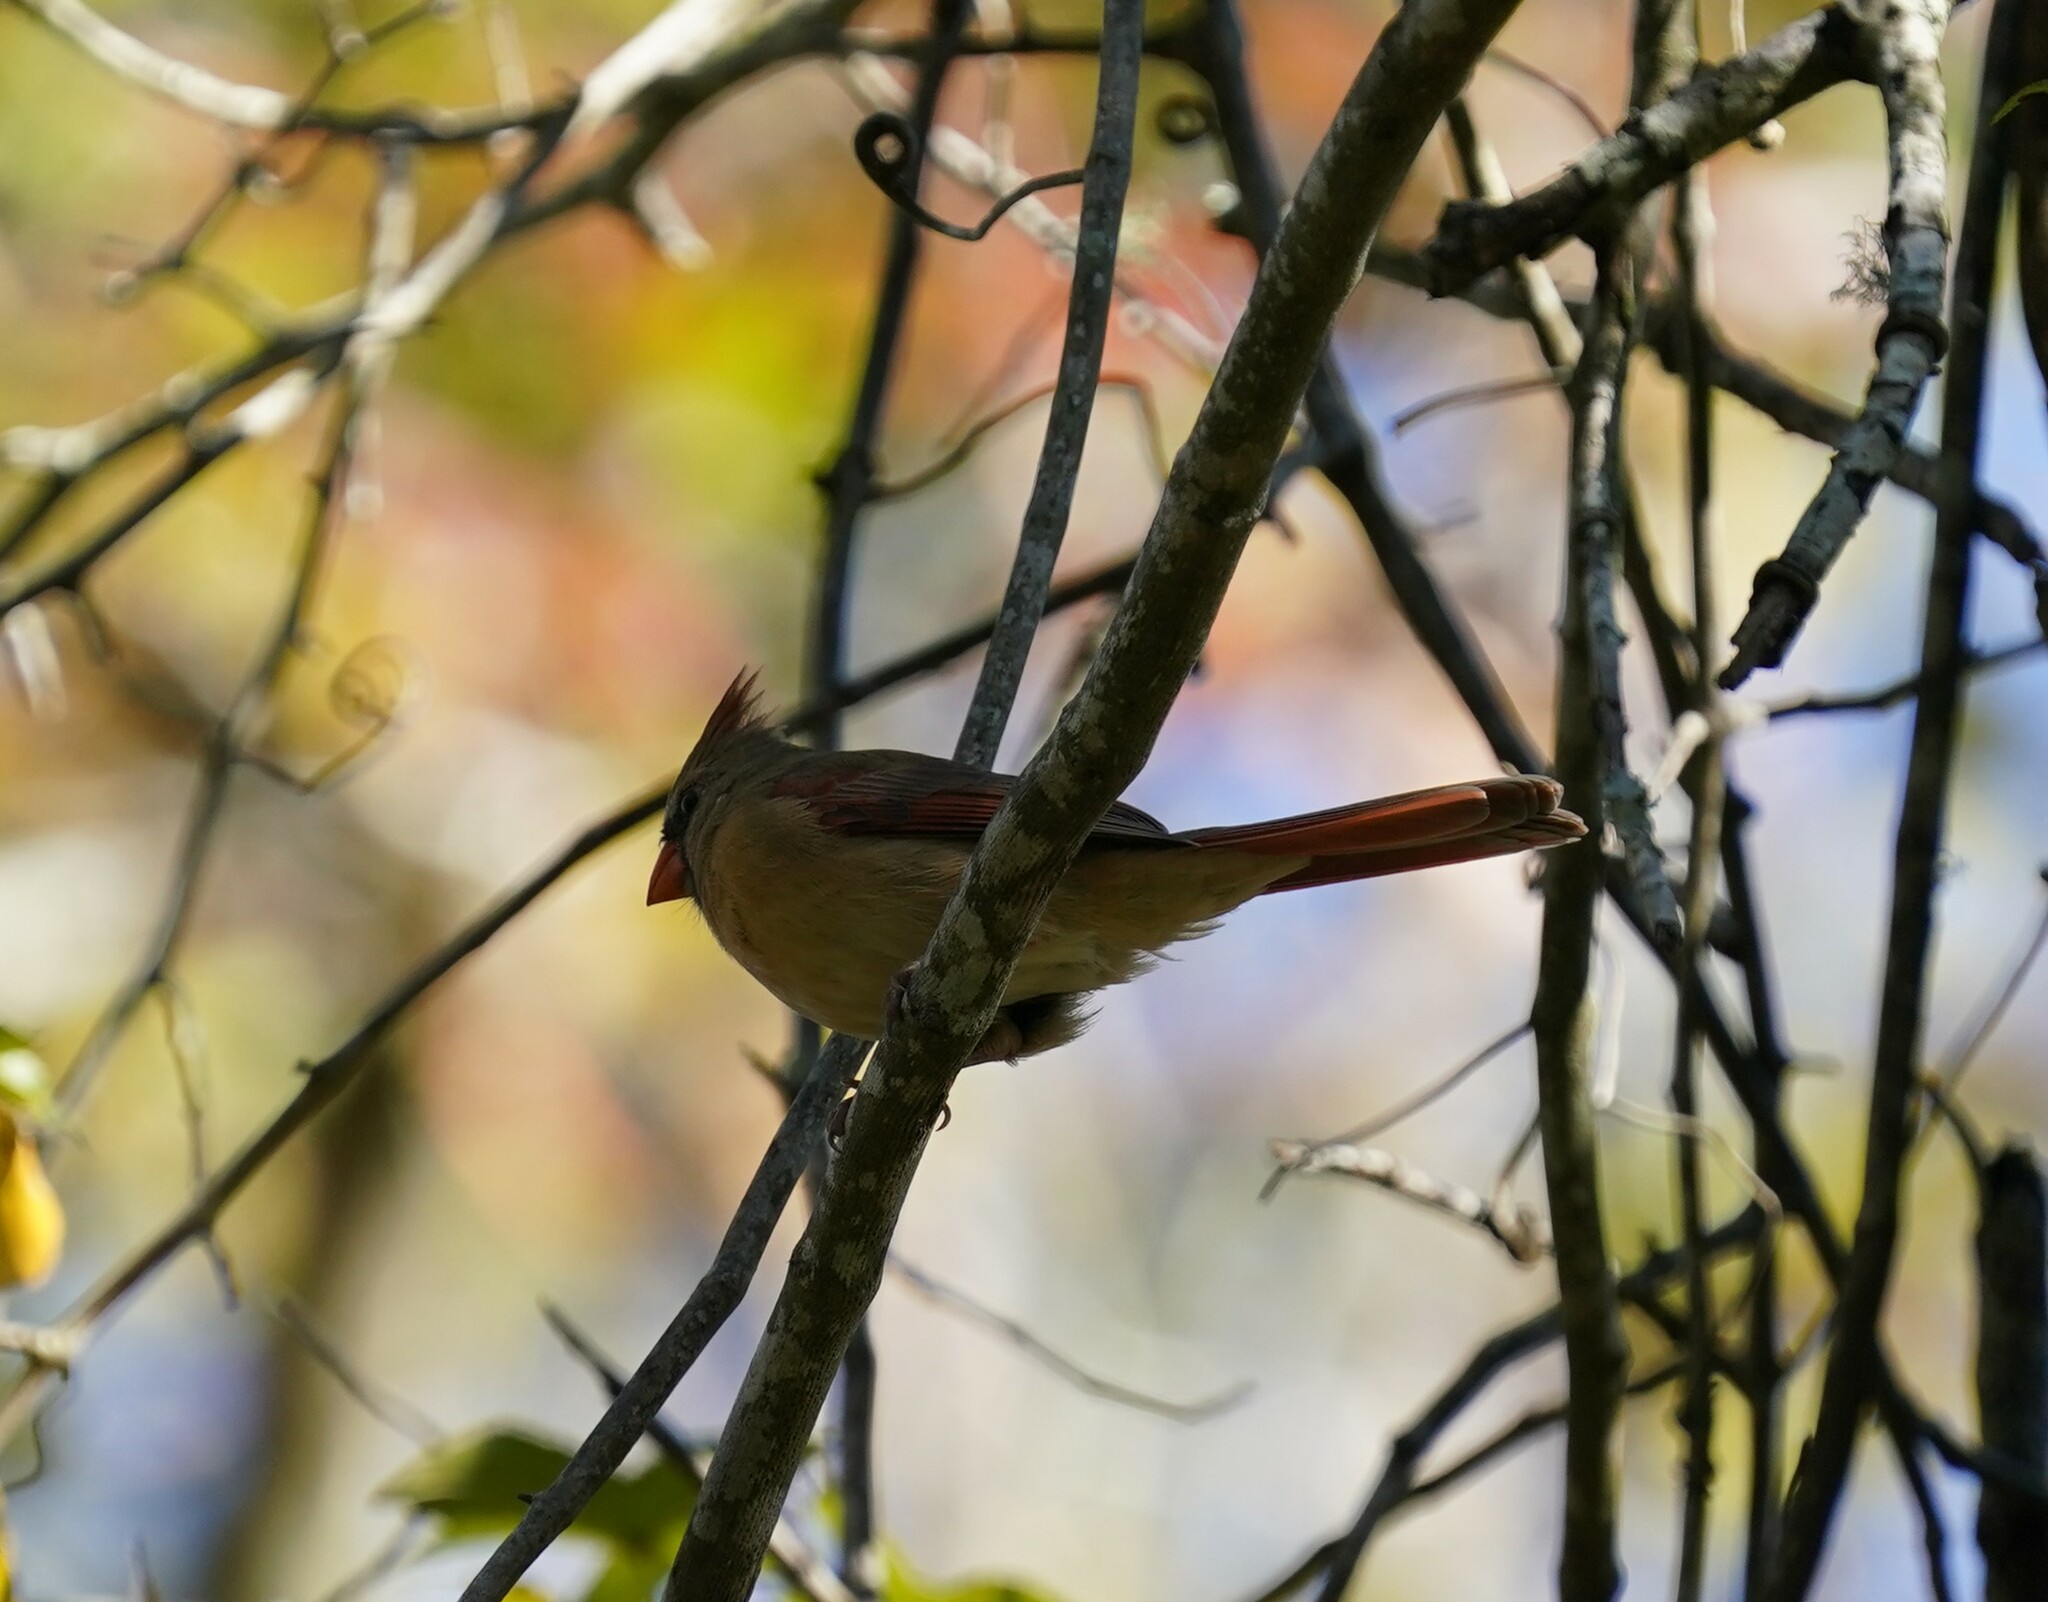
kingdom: Animalia
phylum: Chordata
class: Aves
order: Passeriformes
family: Cardinalidae
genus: Cardinalis
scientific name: Cardinalis cardinalis
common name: Northern cardinal
